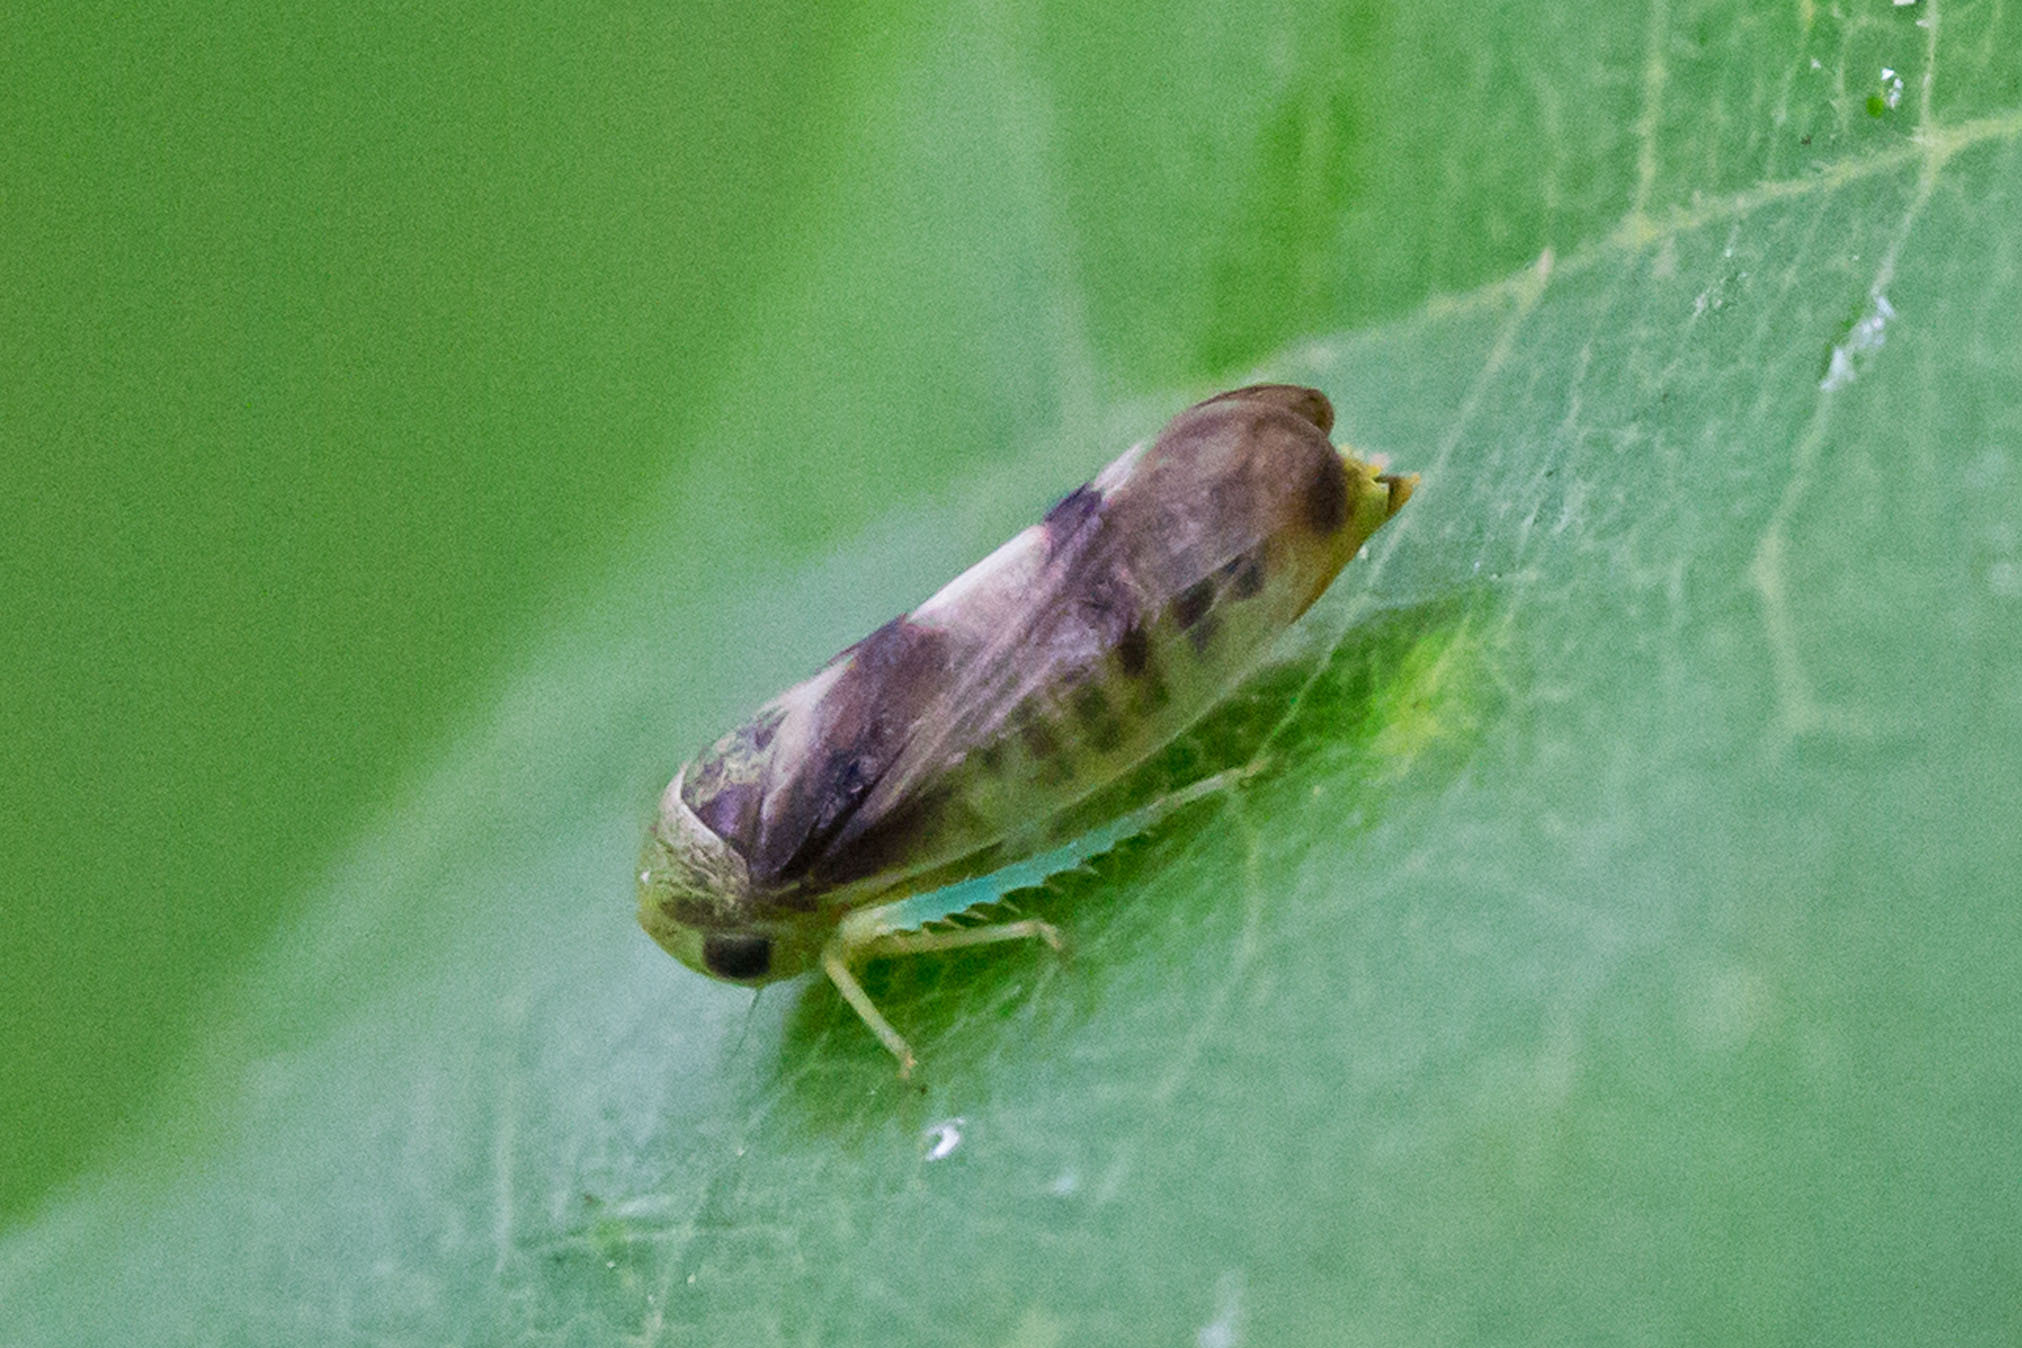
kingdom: Animalia
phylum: Arthropoda
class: Insecta
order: Hemiptera
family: Cicadellidae
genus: Pediopsoides
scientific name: Pediopsoides distinctus
